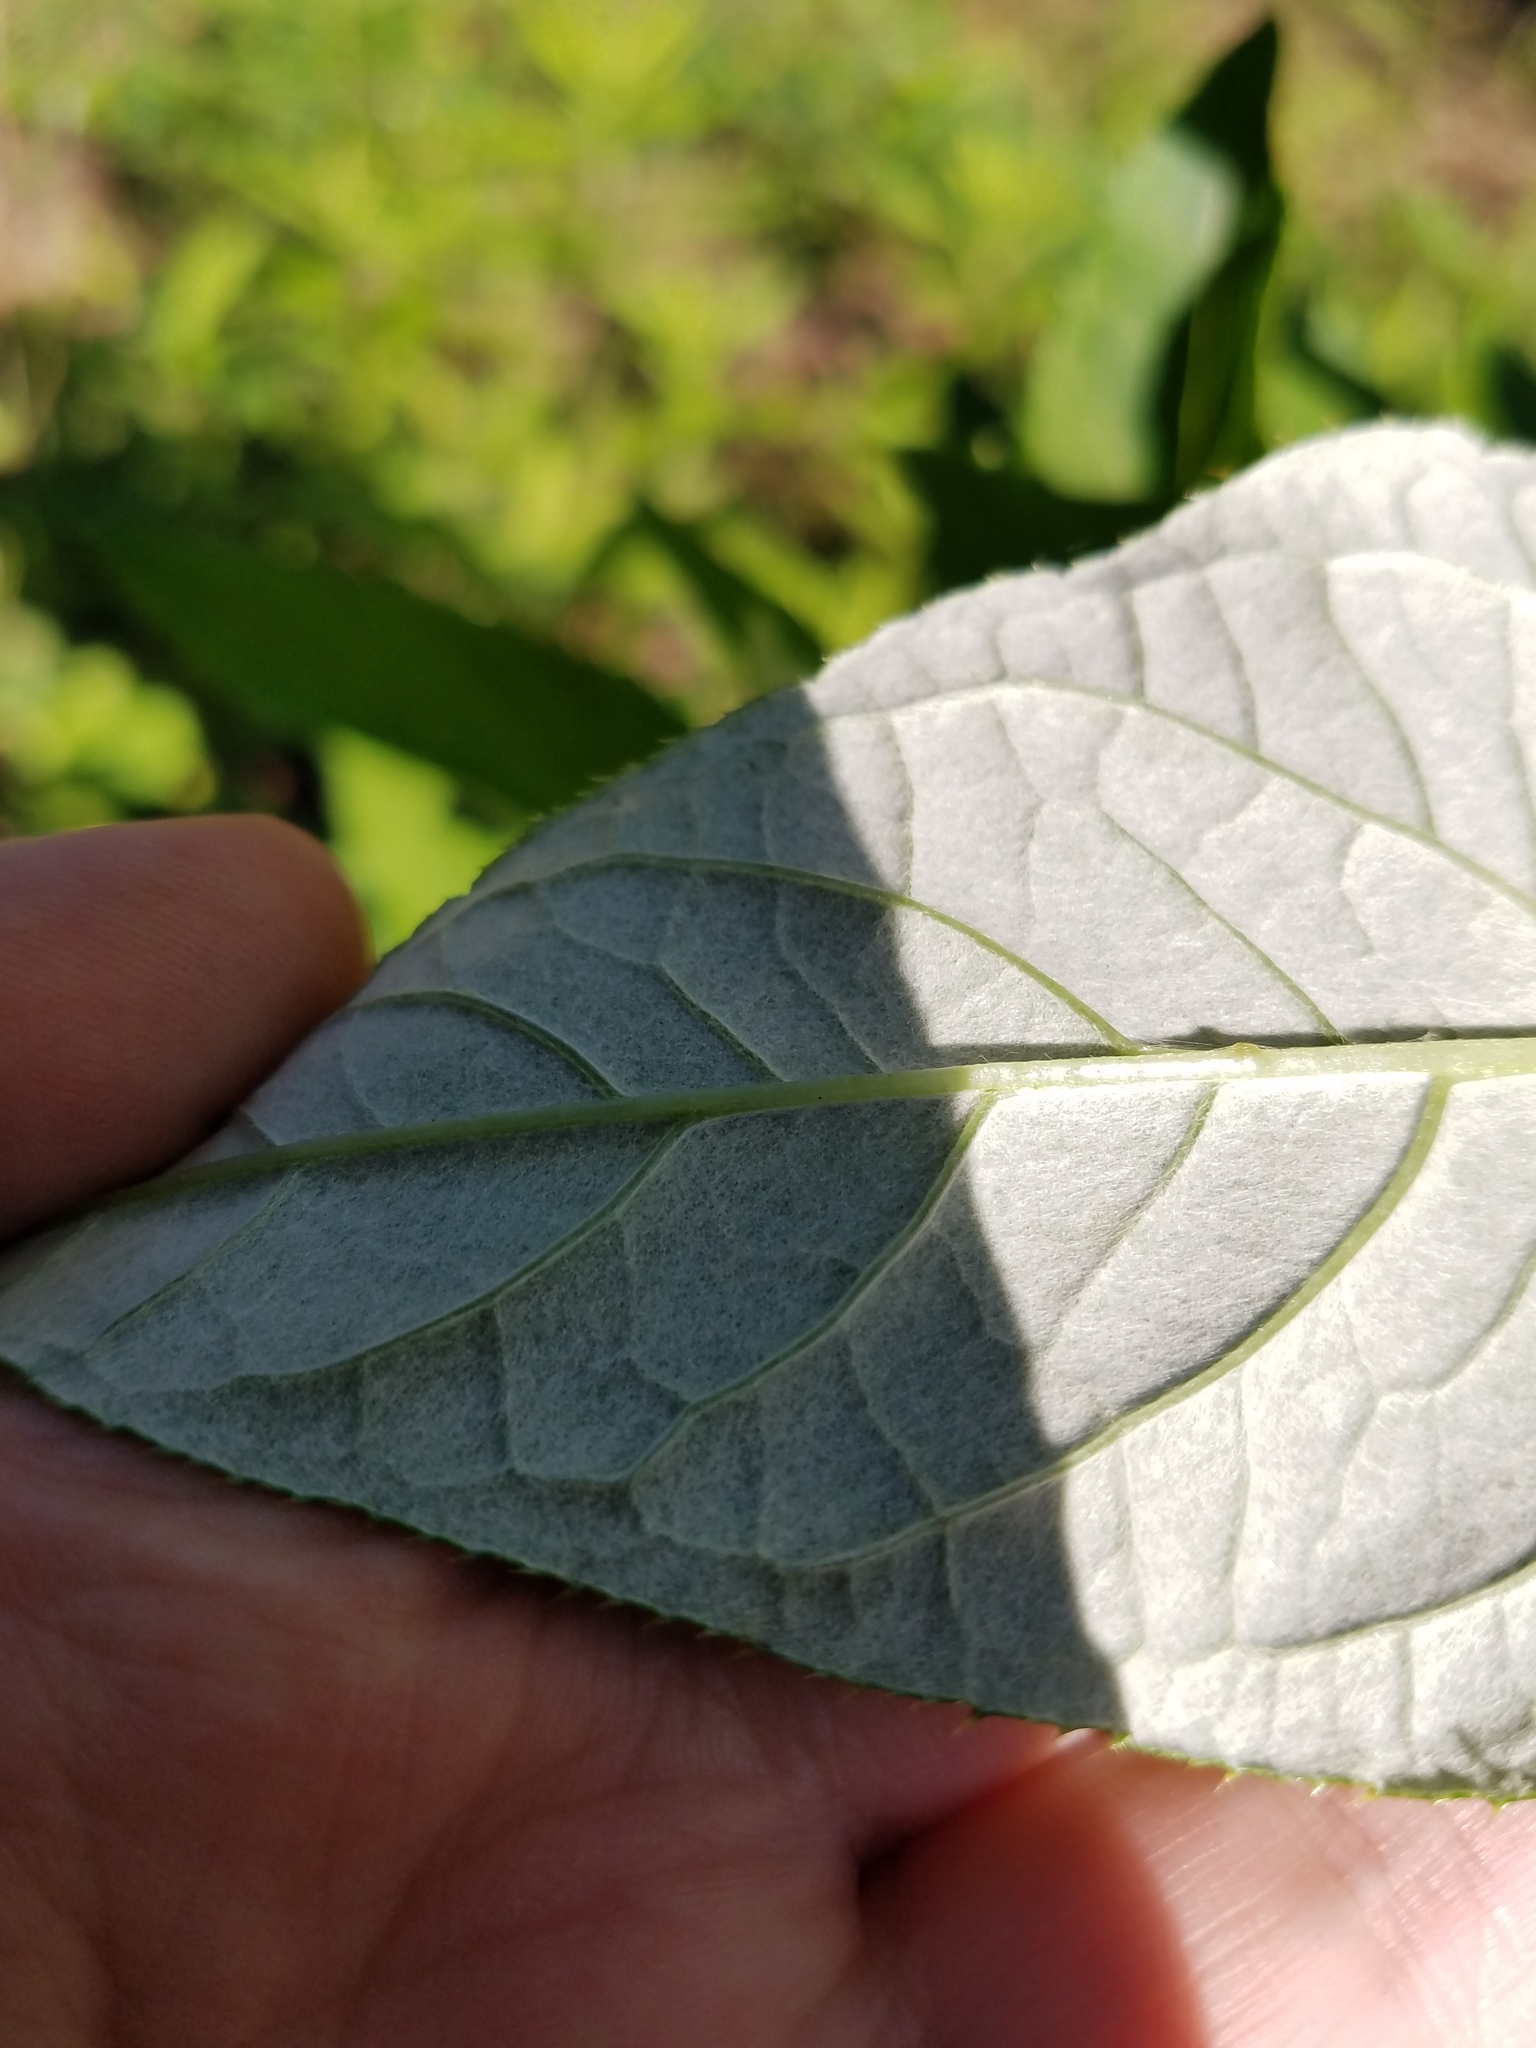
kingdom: Plantae
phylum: Tracheophyta
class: Magnoliopsida
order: Asterales
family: Asteraceae
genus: Cirsium
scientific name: Cirsium altissimum
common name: Roadside thistle
